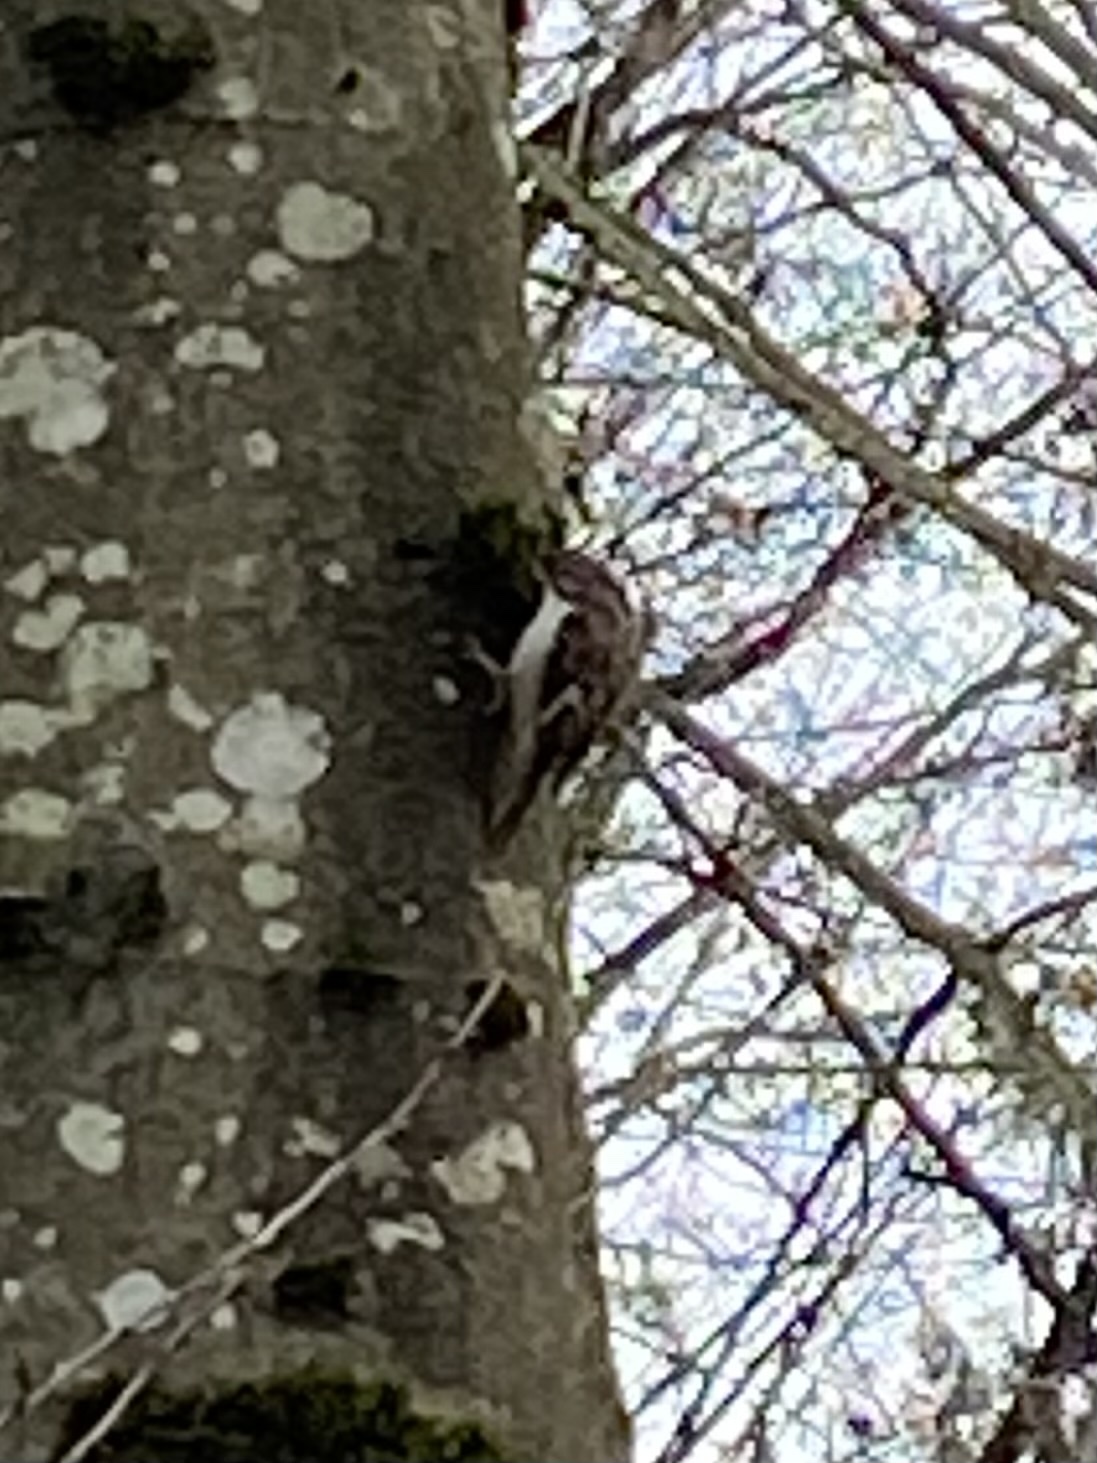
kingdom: Animalia
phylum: Chordata
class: Aves
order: Passeriformes
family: Certhiidae
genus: Certhia
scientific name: Certhia americana
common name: Brown creeper
